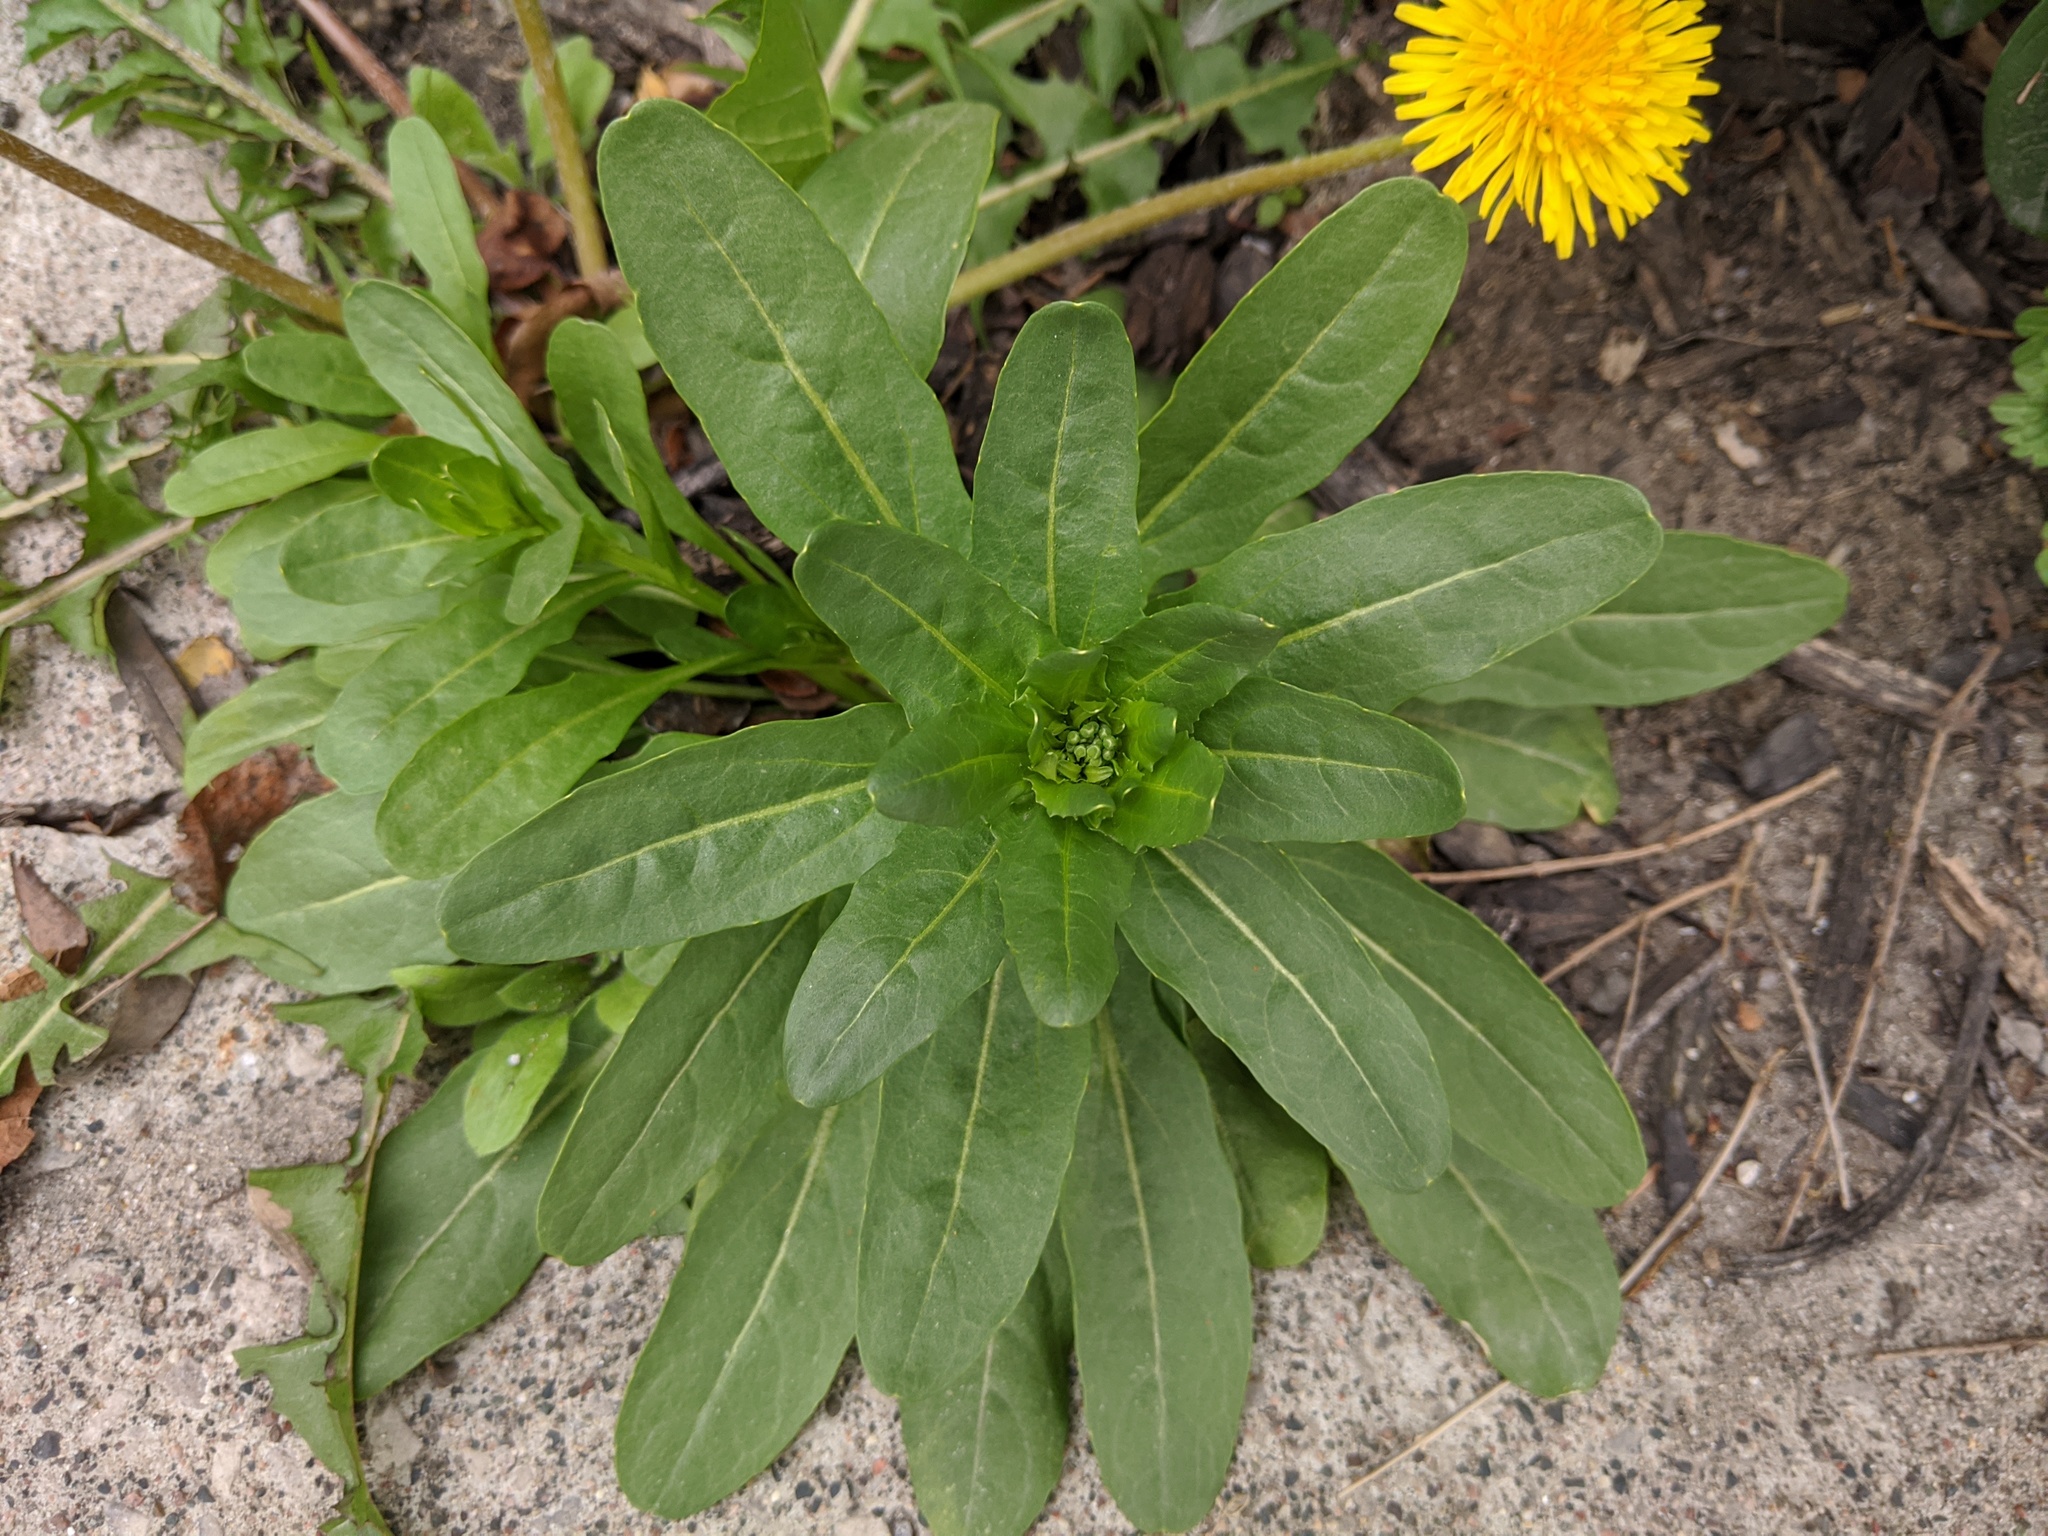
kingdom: Plantae
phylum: Tracheophyta
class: Magnoliopsida
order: Brassicales
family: Brassicaceae
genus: Thlaspi
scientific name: Thlaspi arvense
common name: Field pennycress
